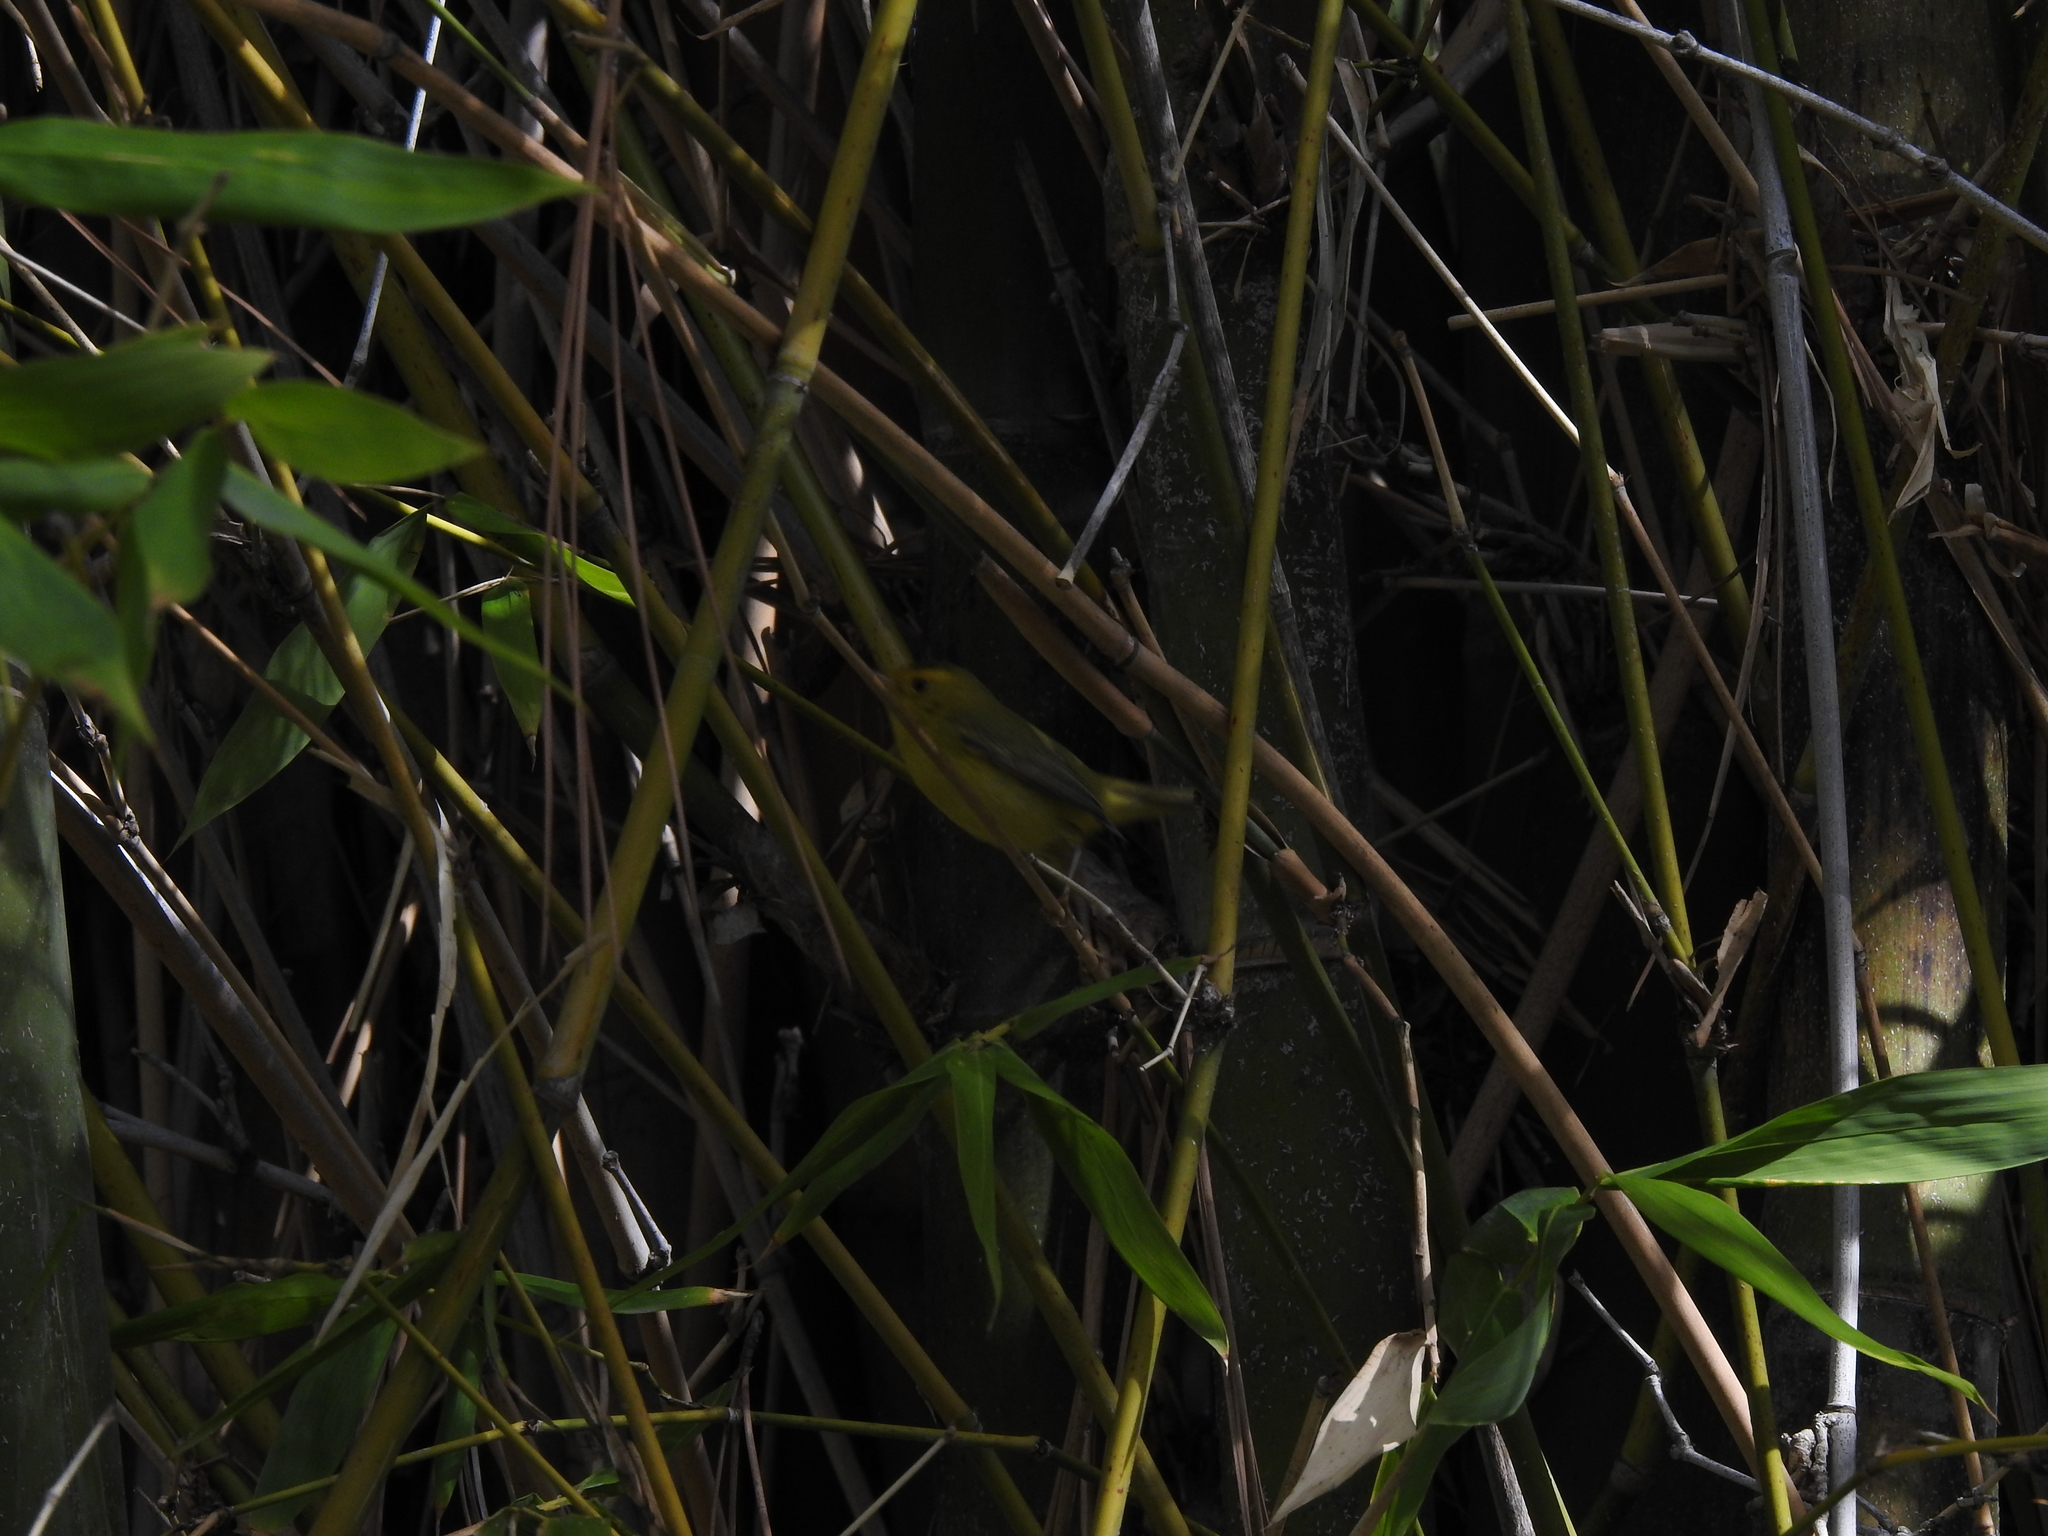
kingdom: Animalia
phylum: Chordata
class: Aves
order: Passeriformes
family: Parulidae
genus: Cardellina
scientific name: Cardellina pusilla
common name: Wilson's warbler
